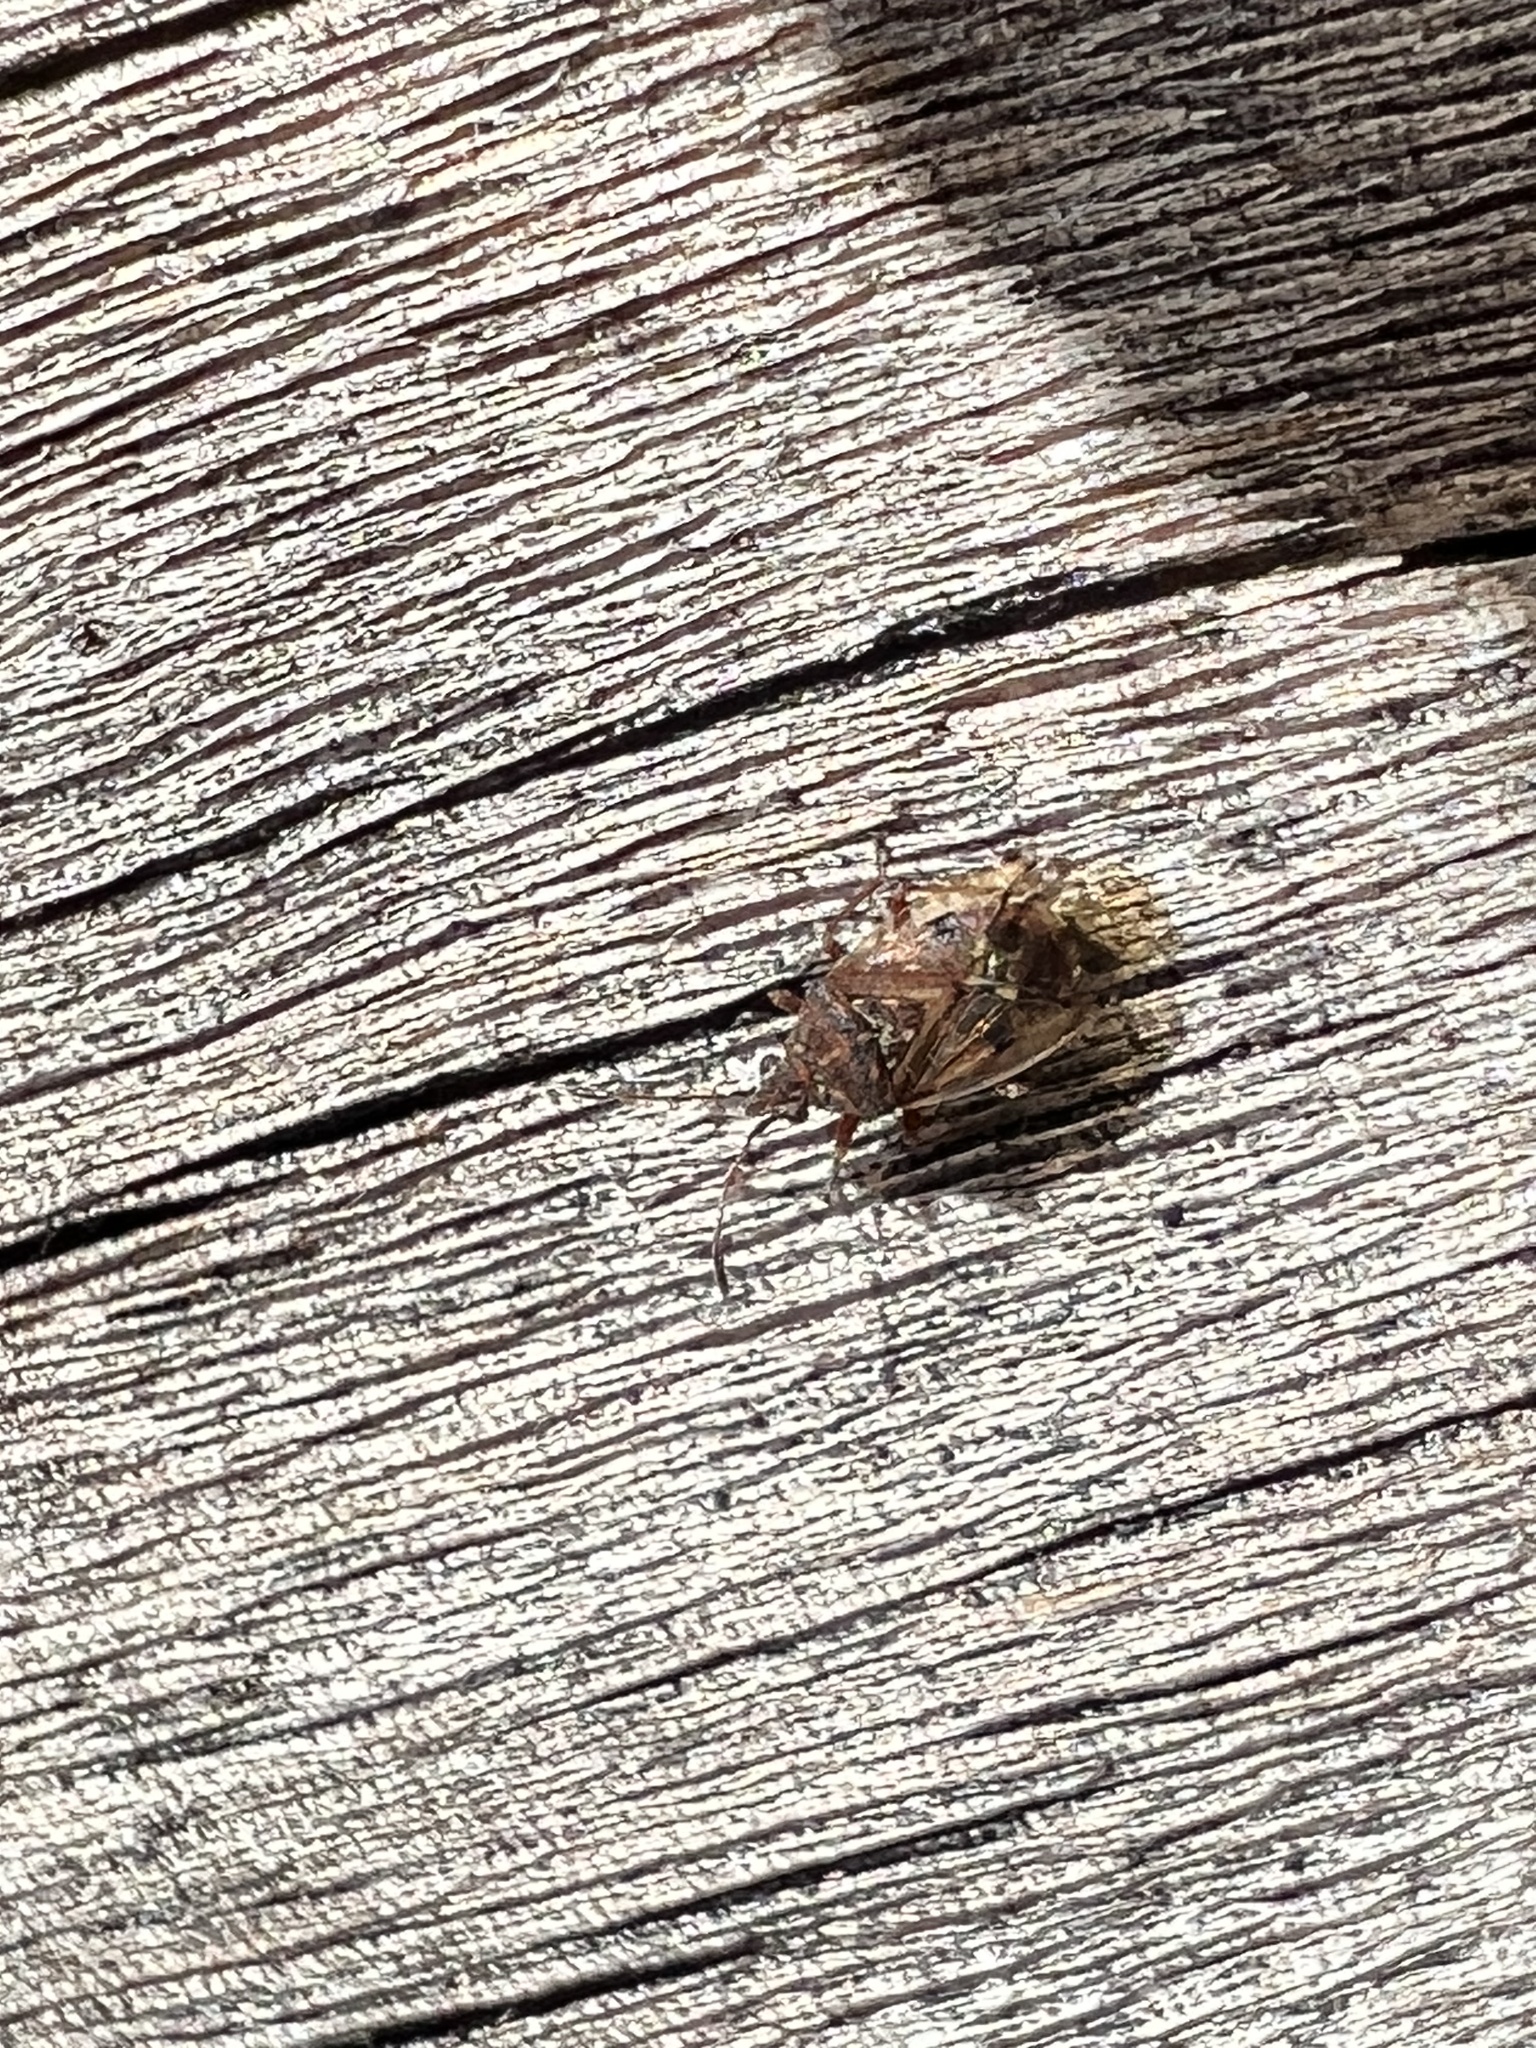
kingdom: Animalia
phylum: Arthropoda
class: Insecta
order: Hemiptera
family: Lygaeidae
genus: Kleidocerys
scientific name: Kleidocerys resedae
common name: Birch catkin bug
